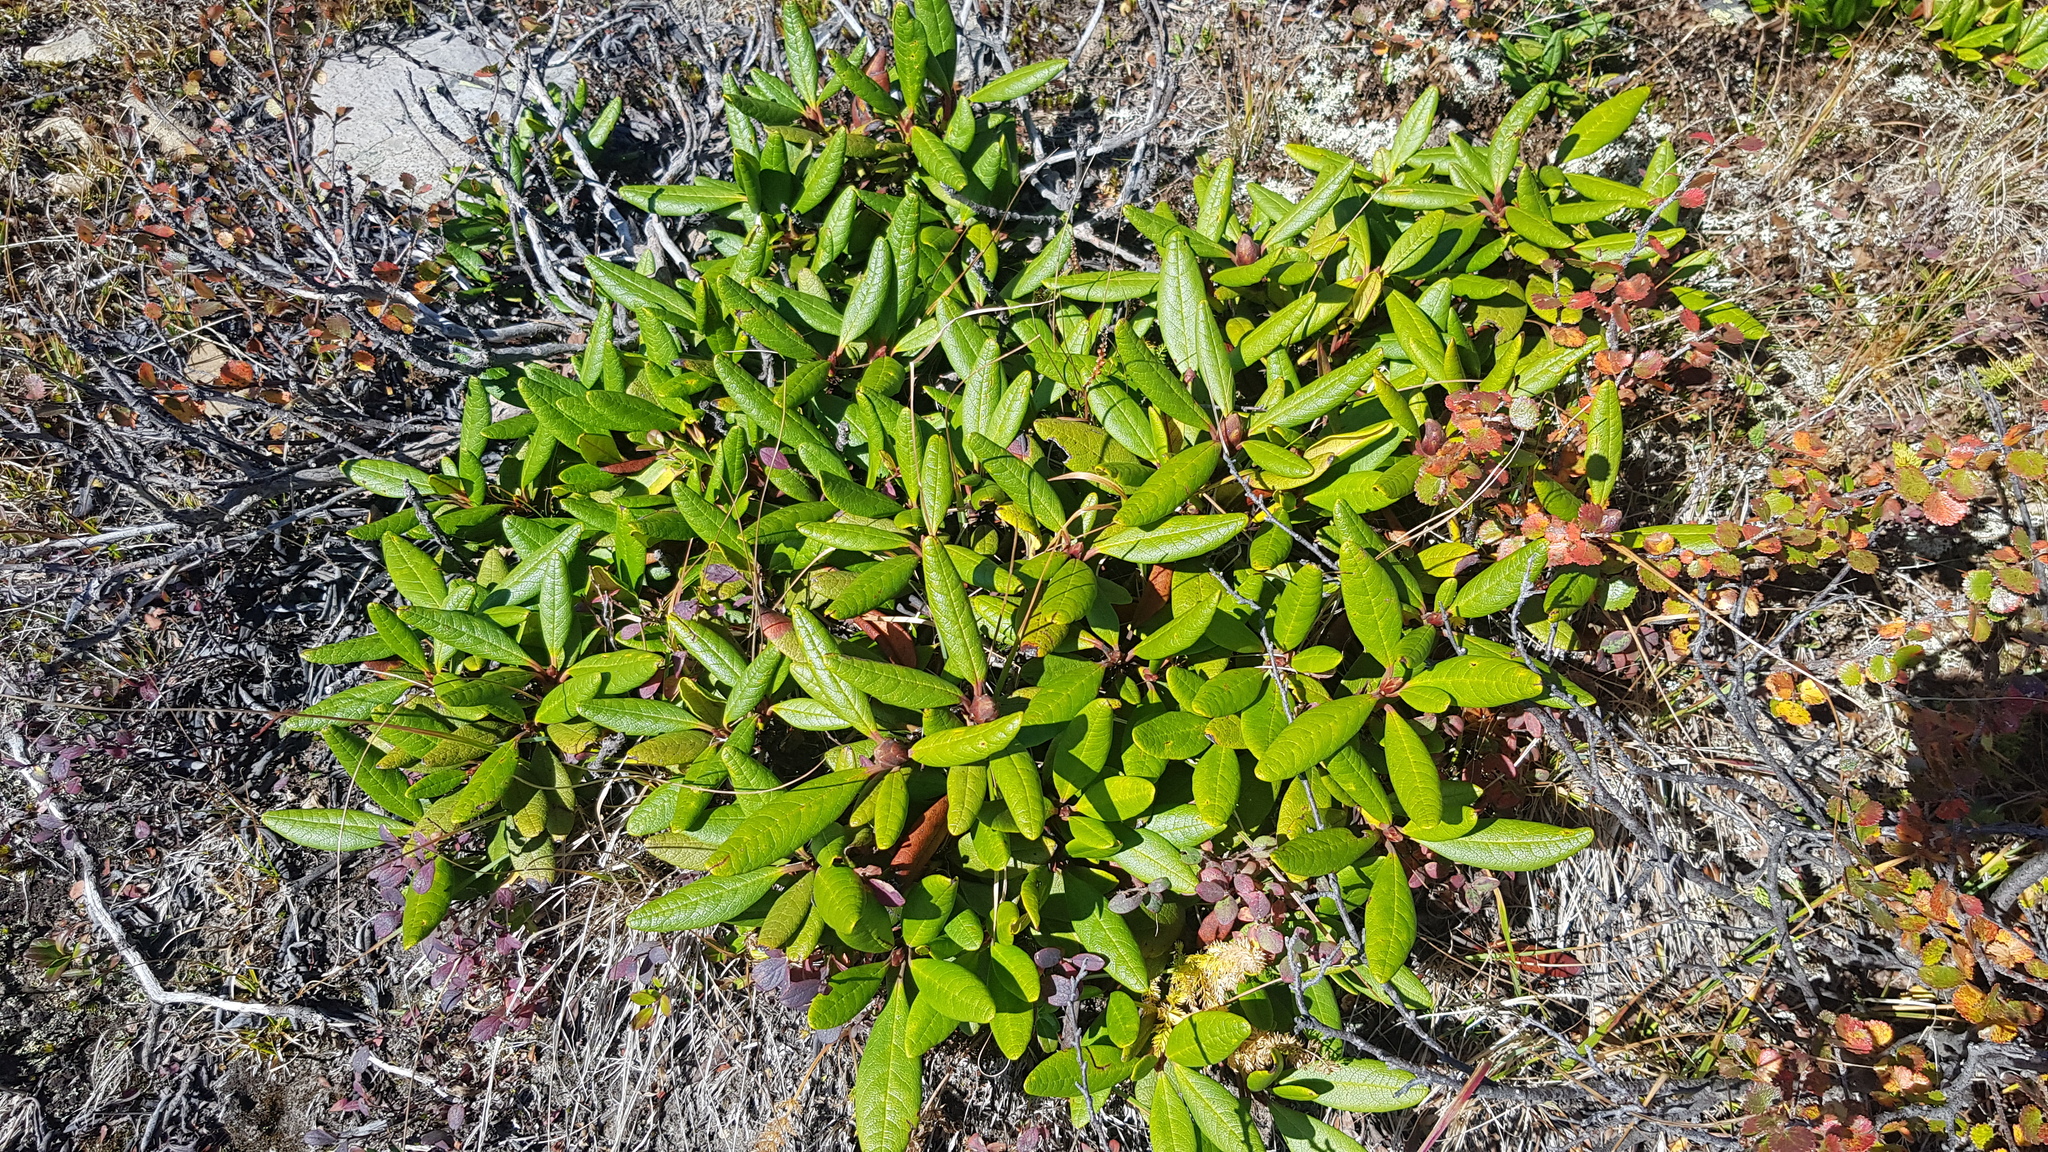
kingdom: Plantae
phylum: Tracheophyta
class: Magnoliopsida
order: Ericales
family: Ericaceae
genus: Rhododendron
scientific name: Rhododendron aureum
